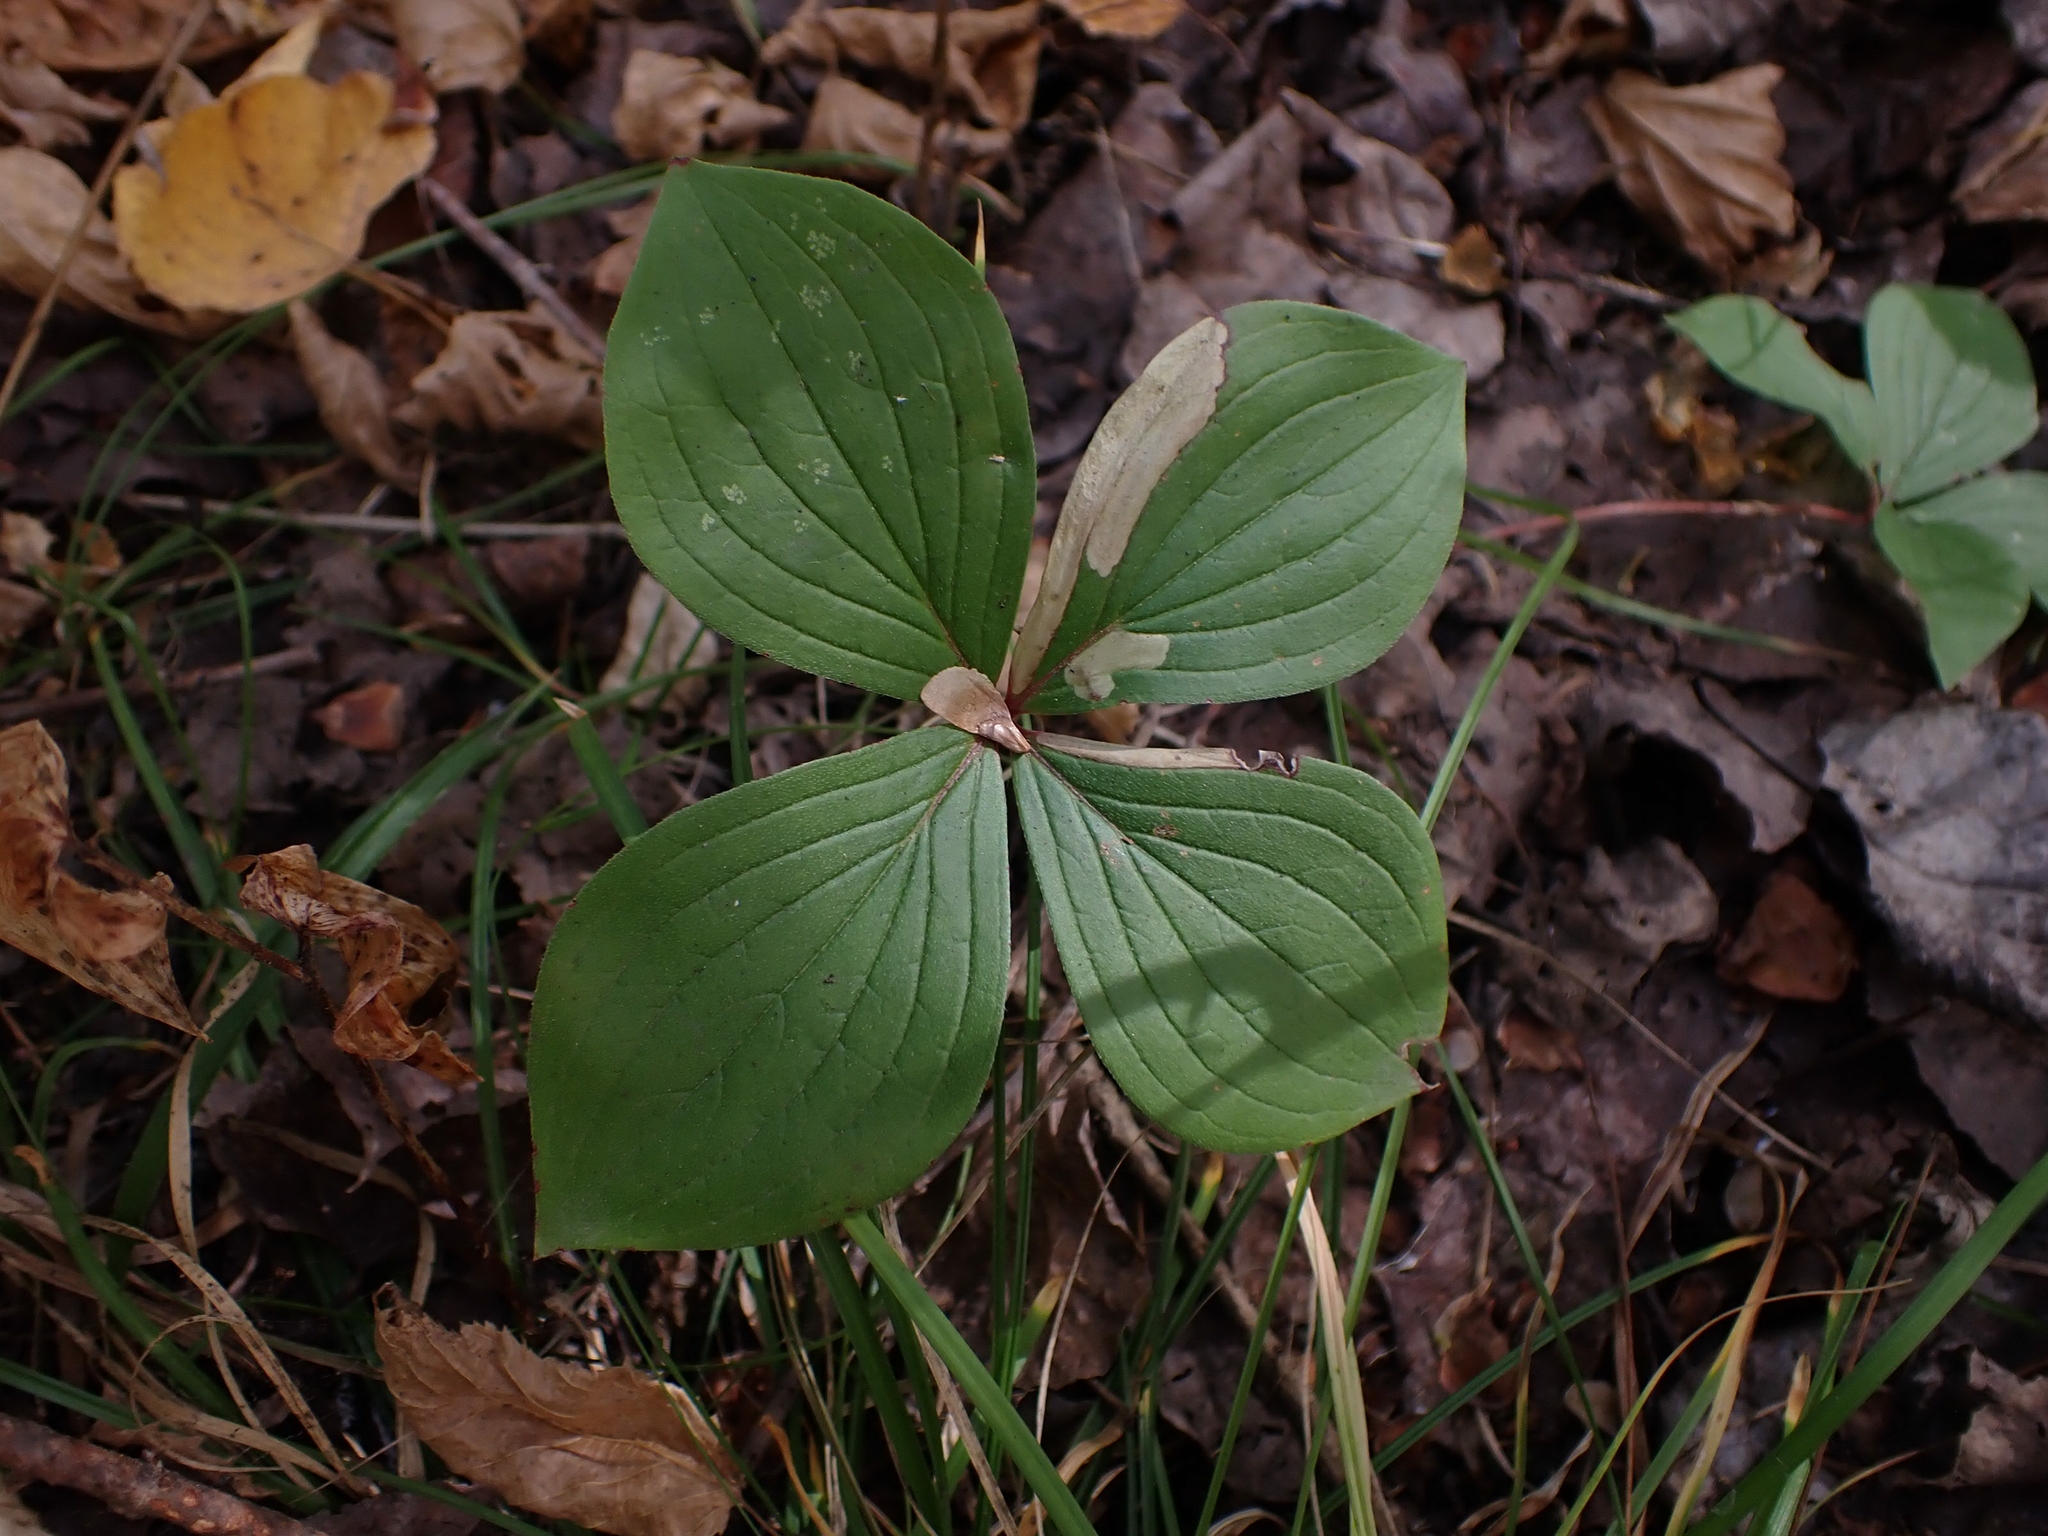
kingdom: Plantae
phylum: Tracheophyta
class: Magnoliopsida
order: Cornales
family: Cornaceae
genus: Cornus
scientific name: Cornus canadensis
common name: Creeping dogwood
